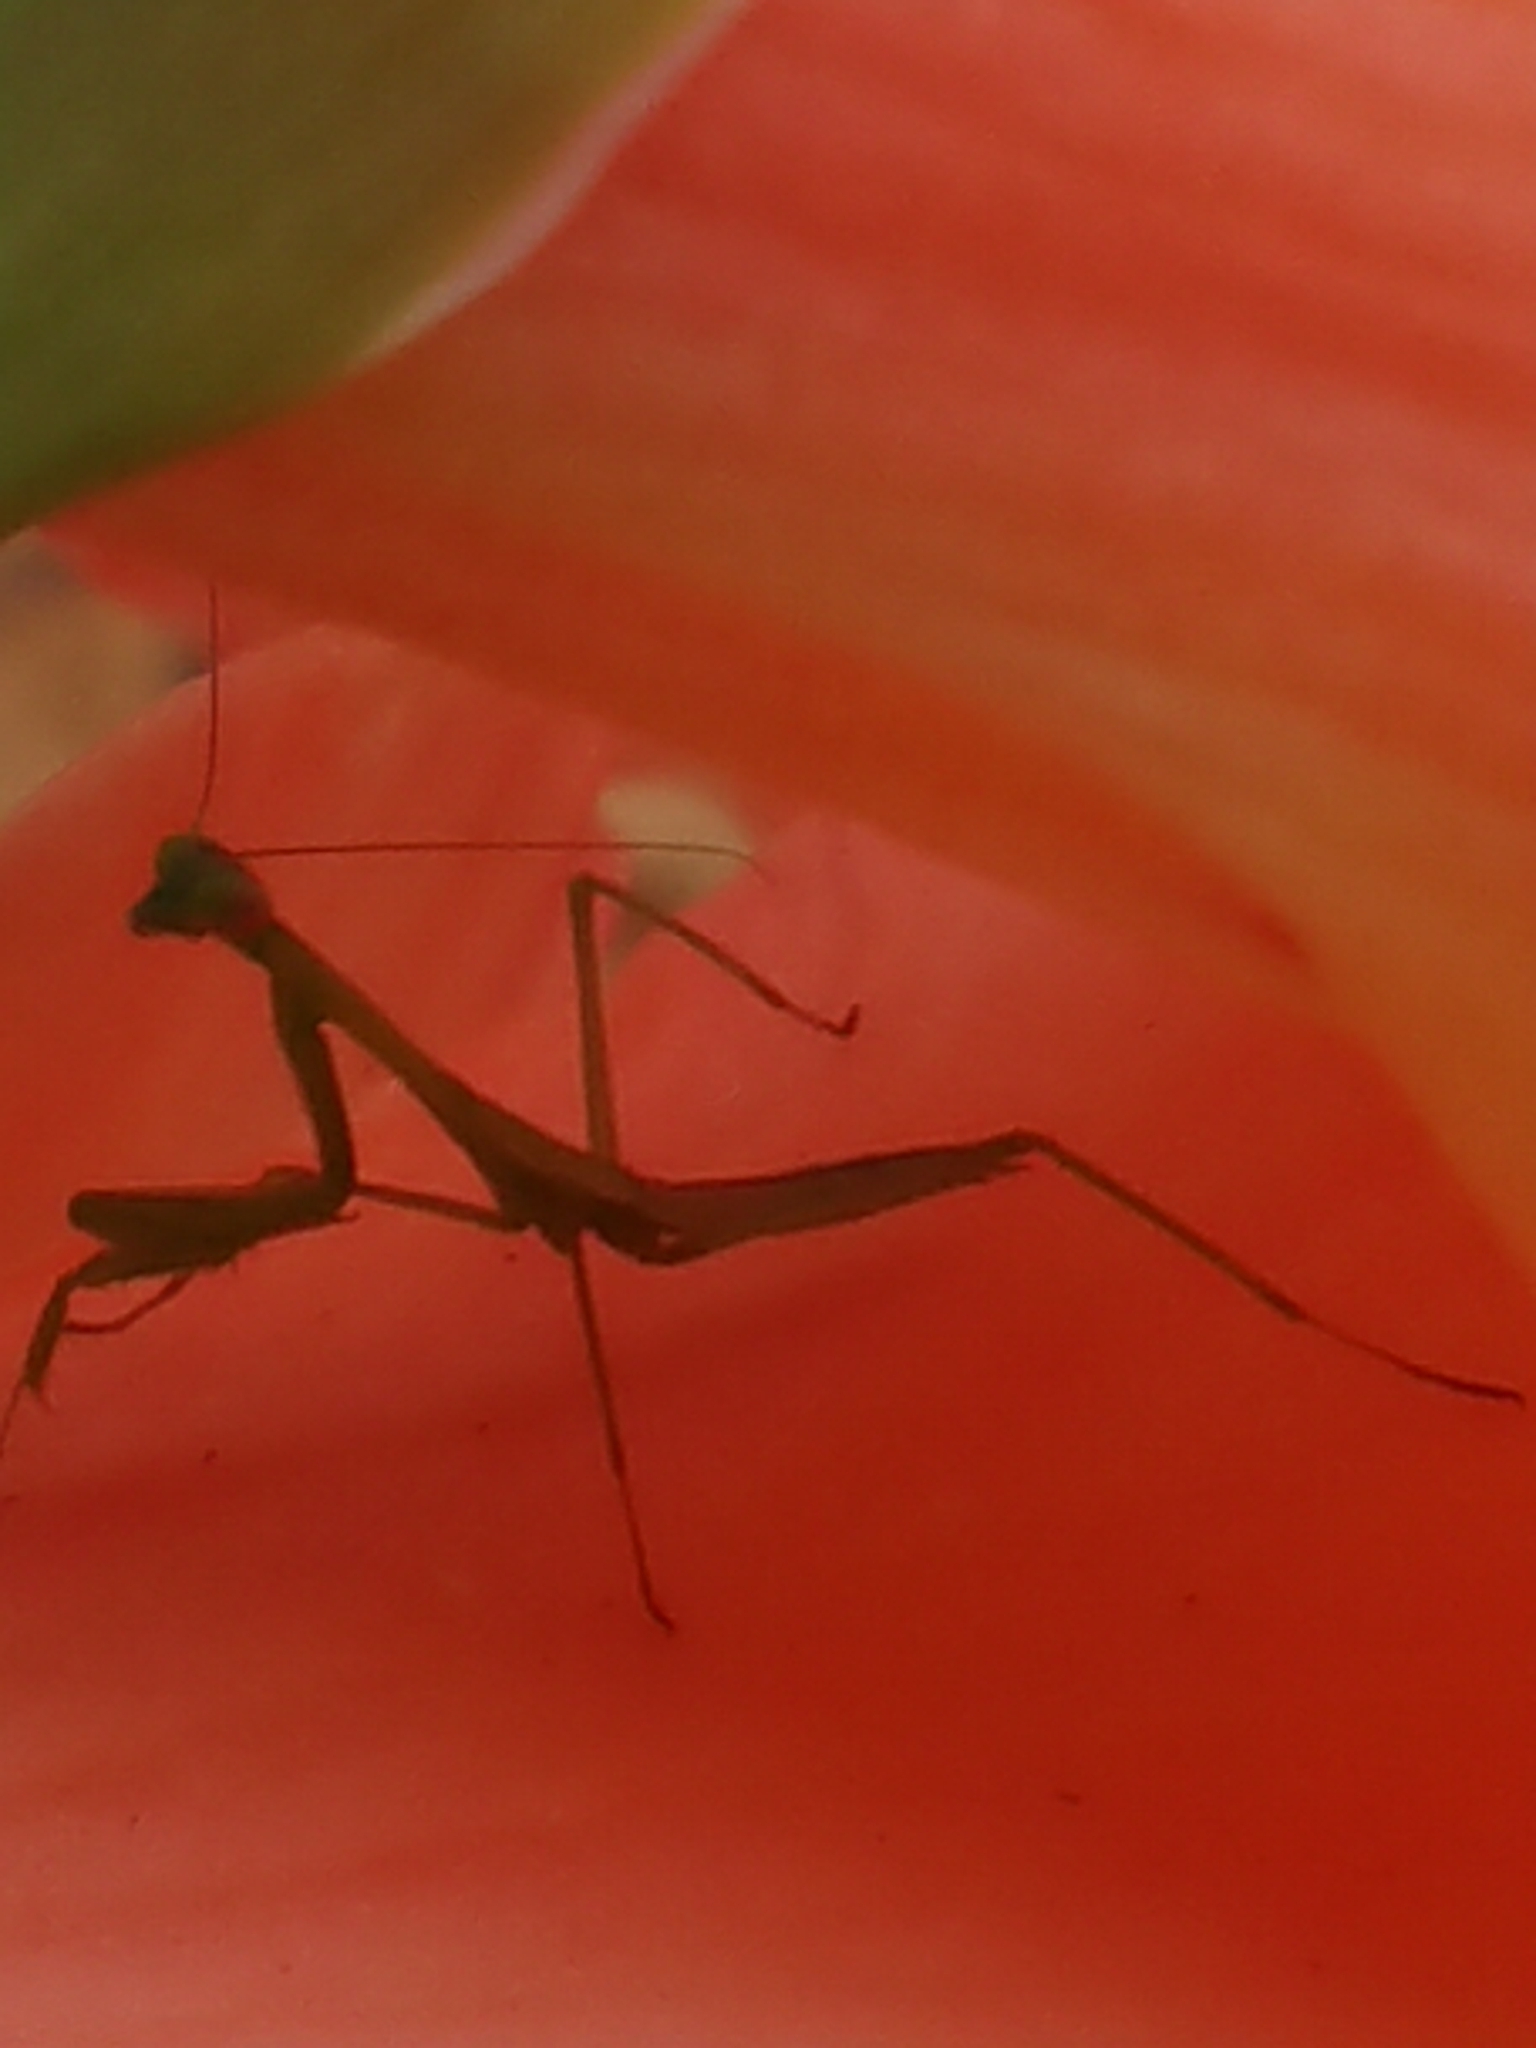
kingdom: Animalia
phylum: Arthropoda
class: Insecta
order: Mantodea
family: Miomantidae
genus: Miomantis
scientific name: Miomantis caffra
